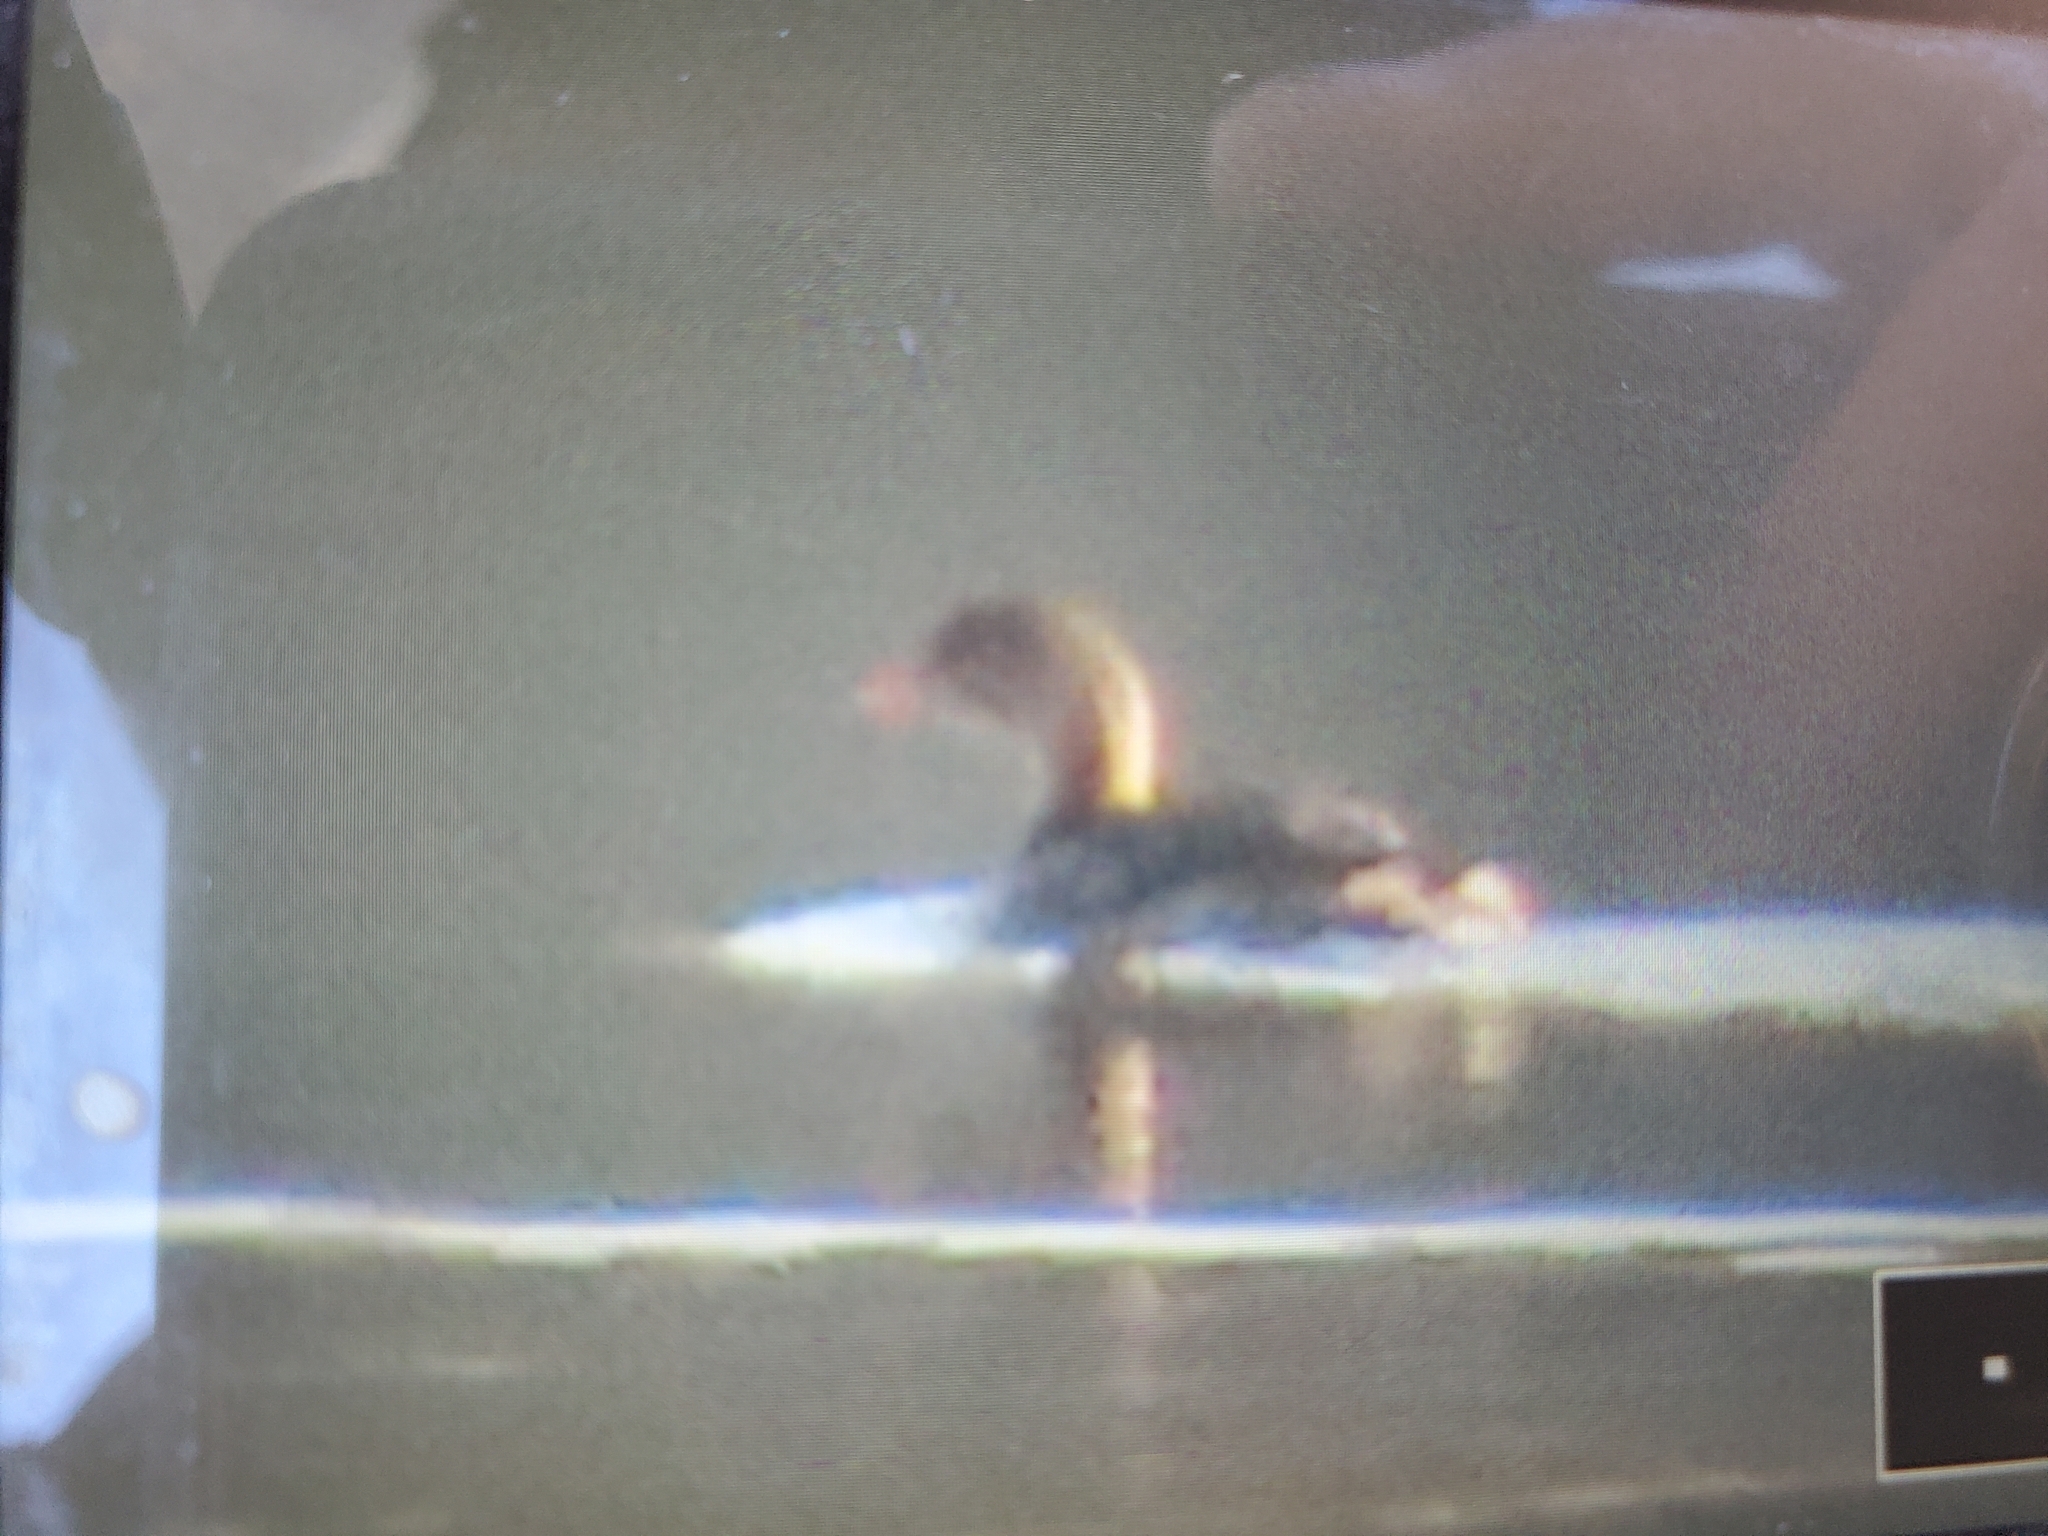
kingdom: Animalia
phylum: Chordata
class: Aves
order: Podicipediformes
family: Podicipedidae
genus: Podilymbus
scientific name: Podilymbus podiceps
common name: Pied-billed grebe
